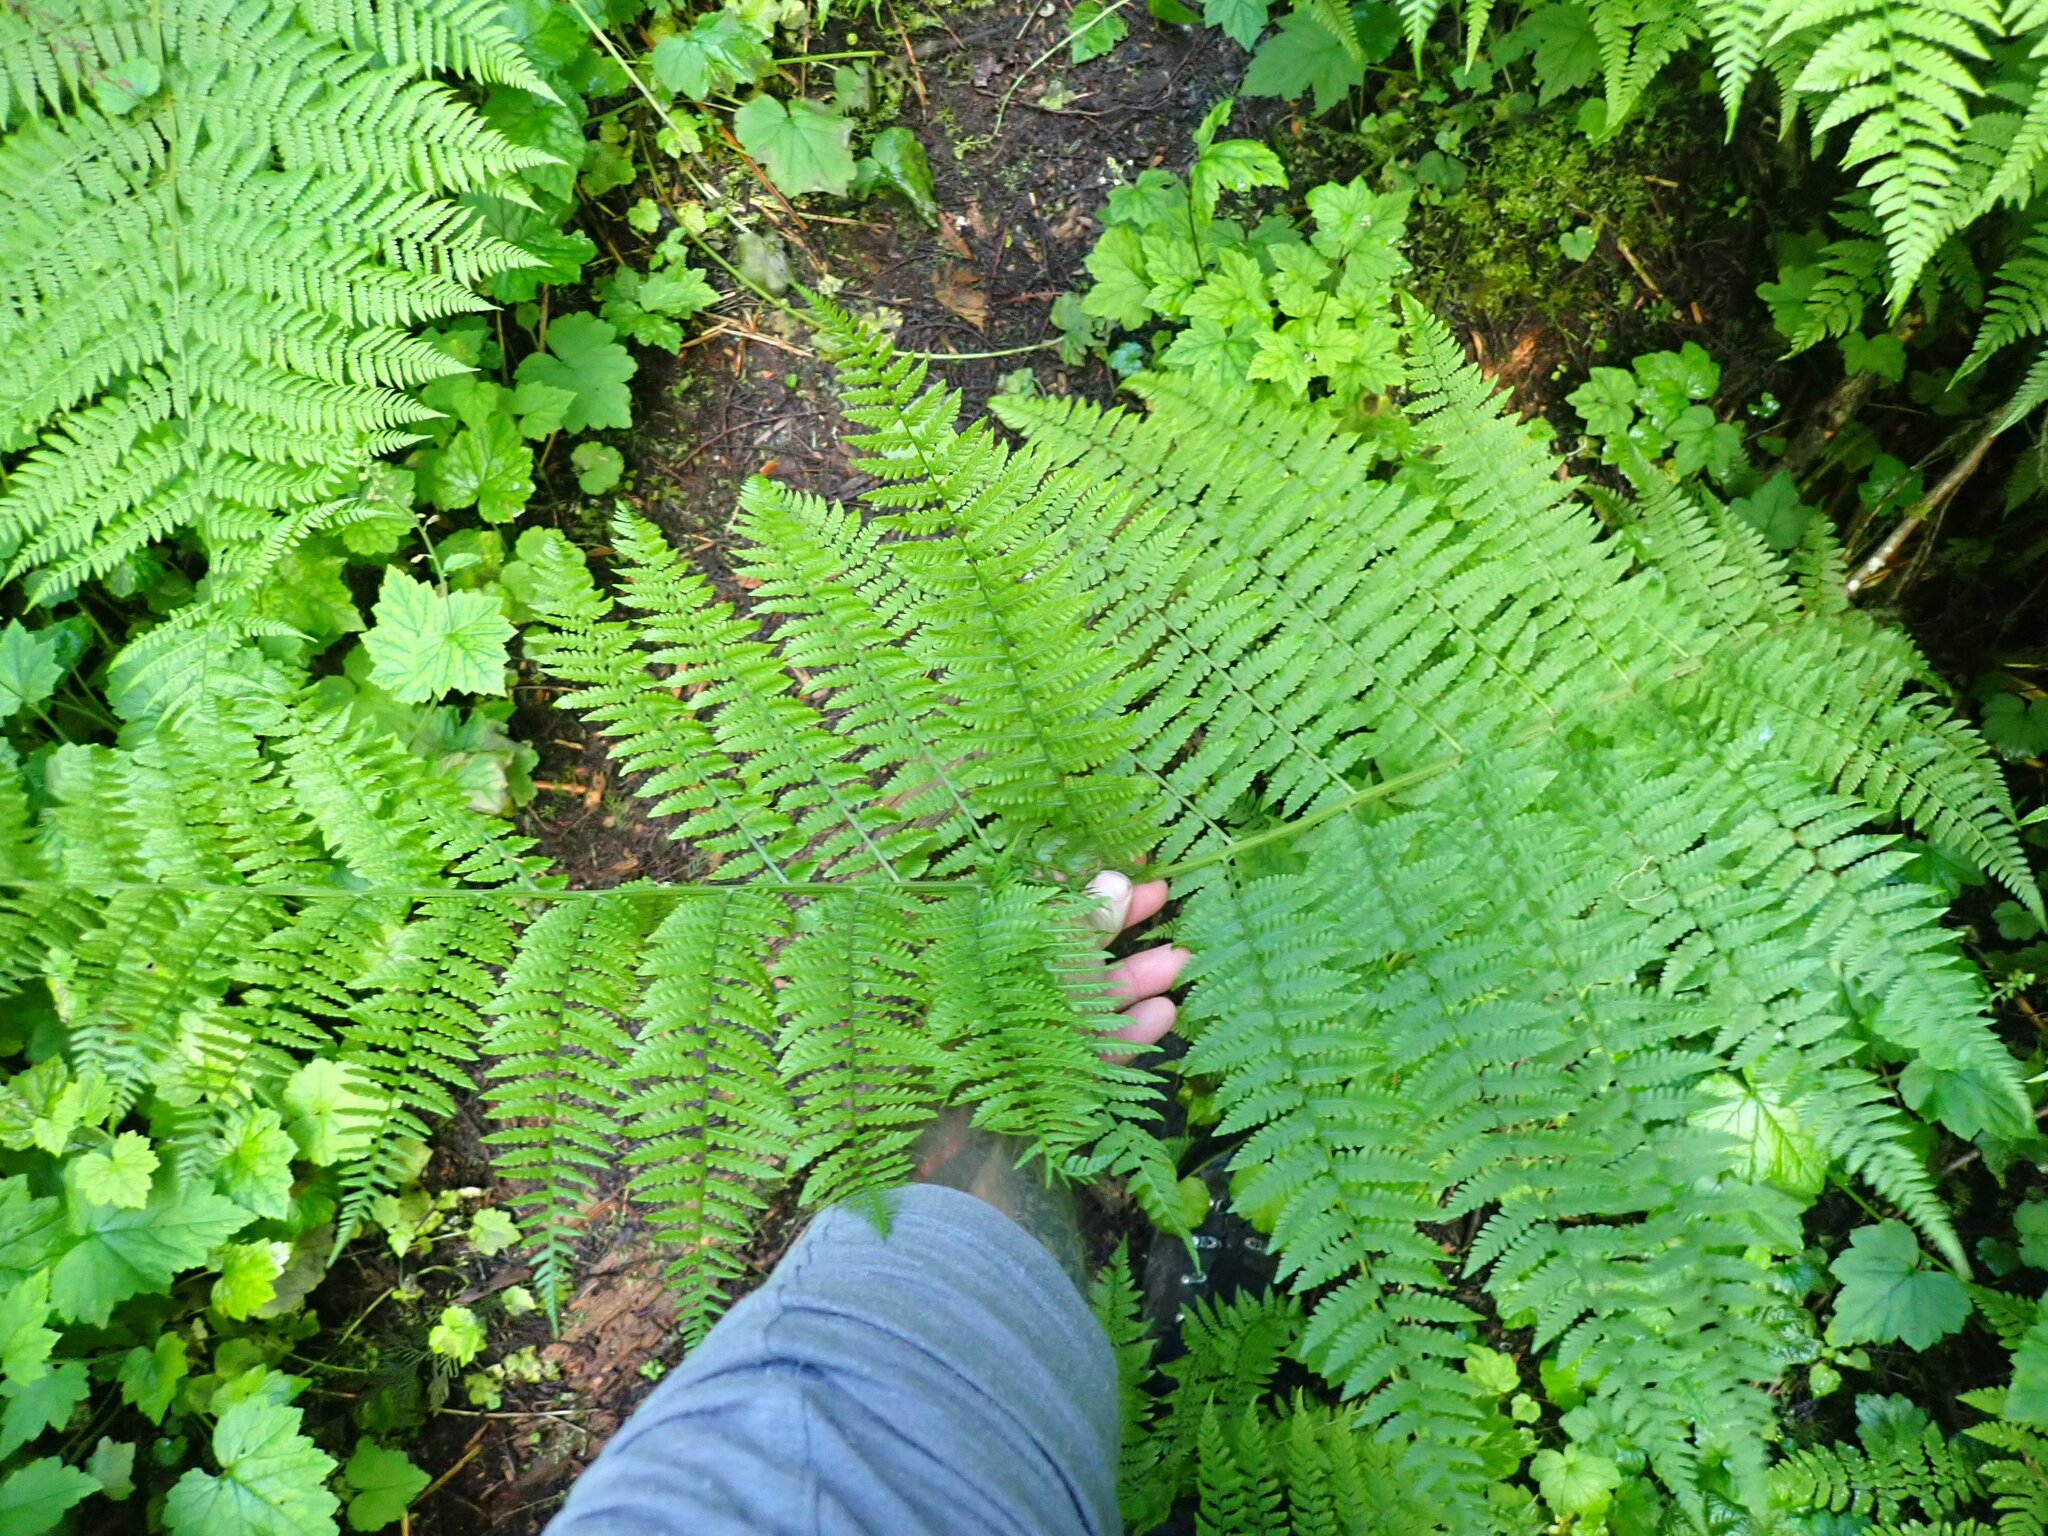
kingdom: Plantae
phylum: Tracheophyta
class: Polypodiopsida
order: Polypodiales
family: Athyriaceae
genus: Athyrium
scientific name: Athyrium filix-femina
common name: Lady fern
